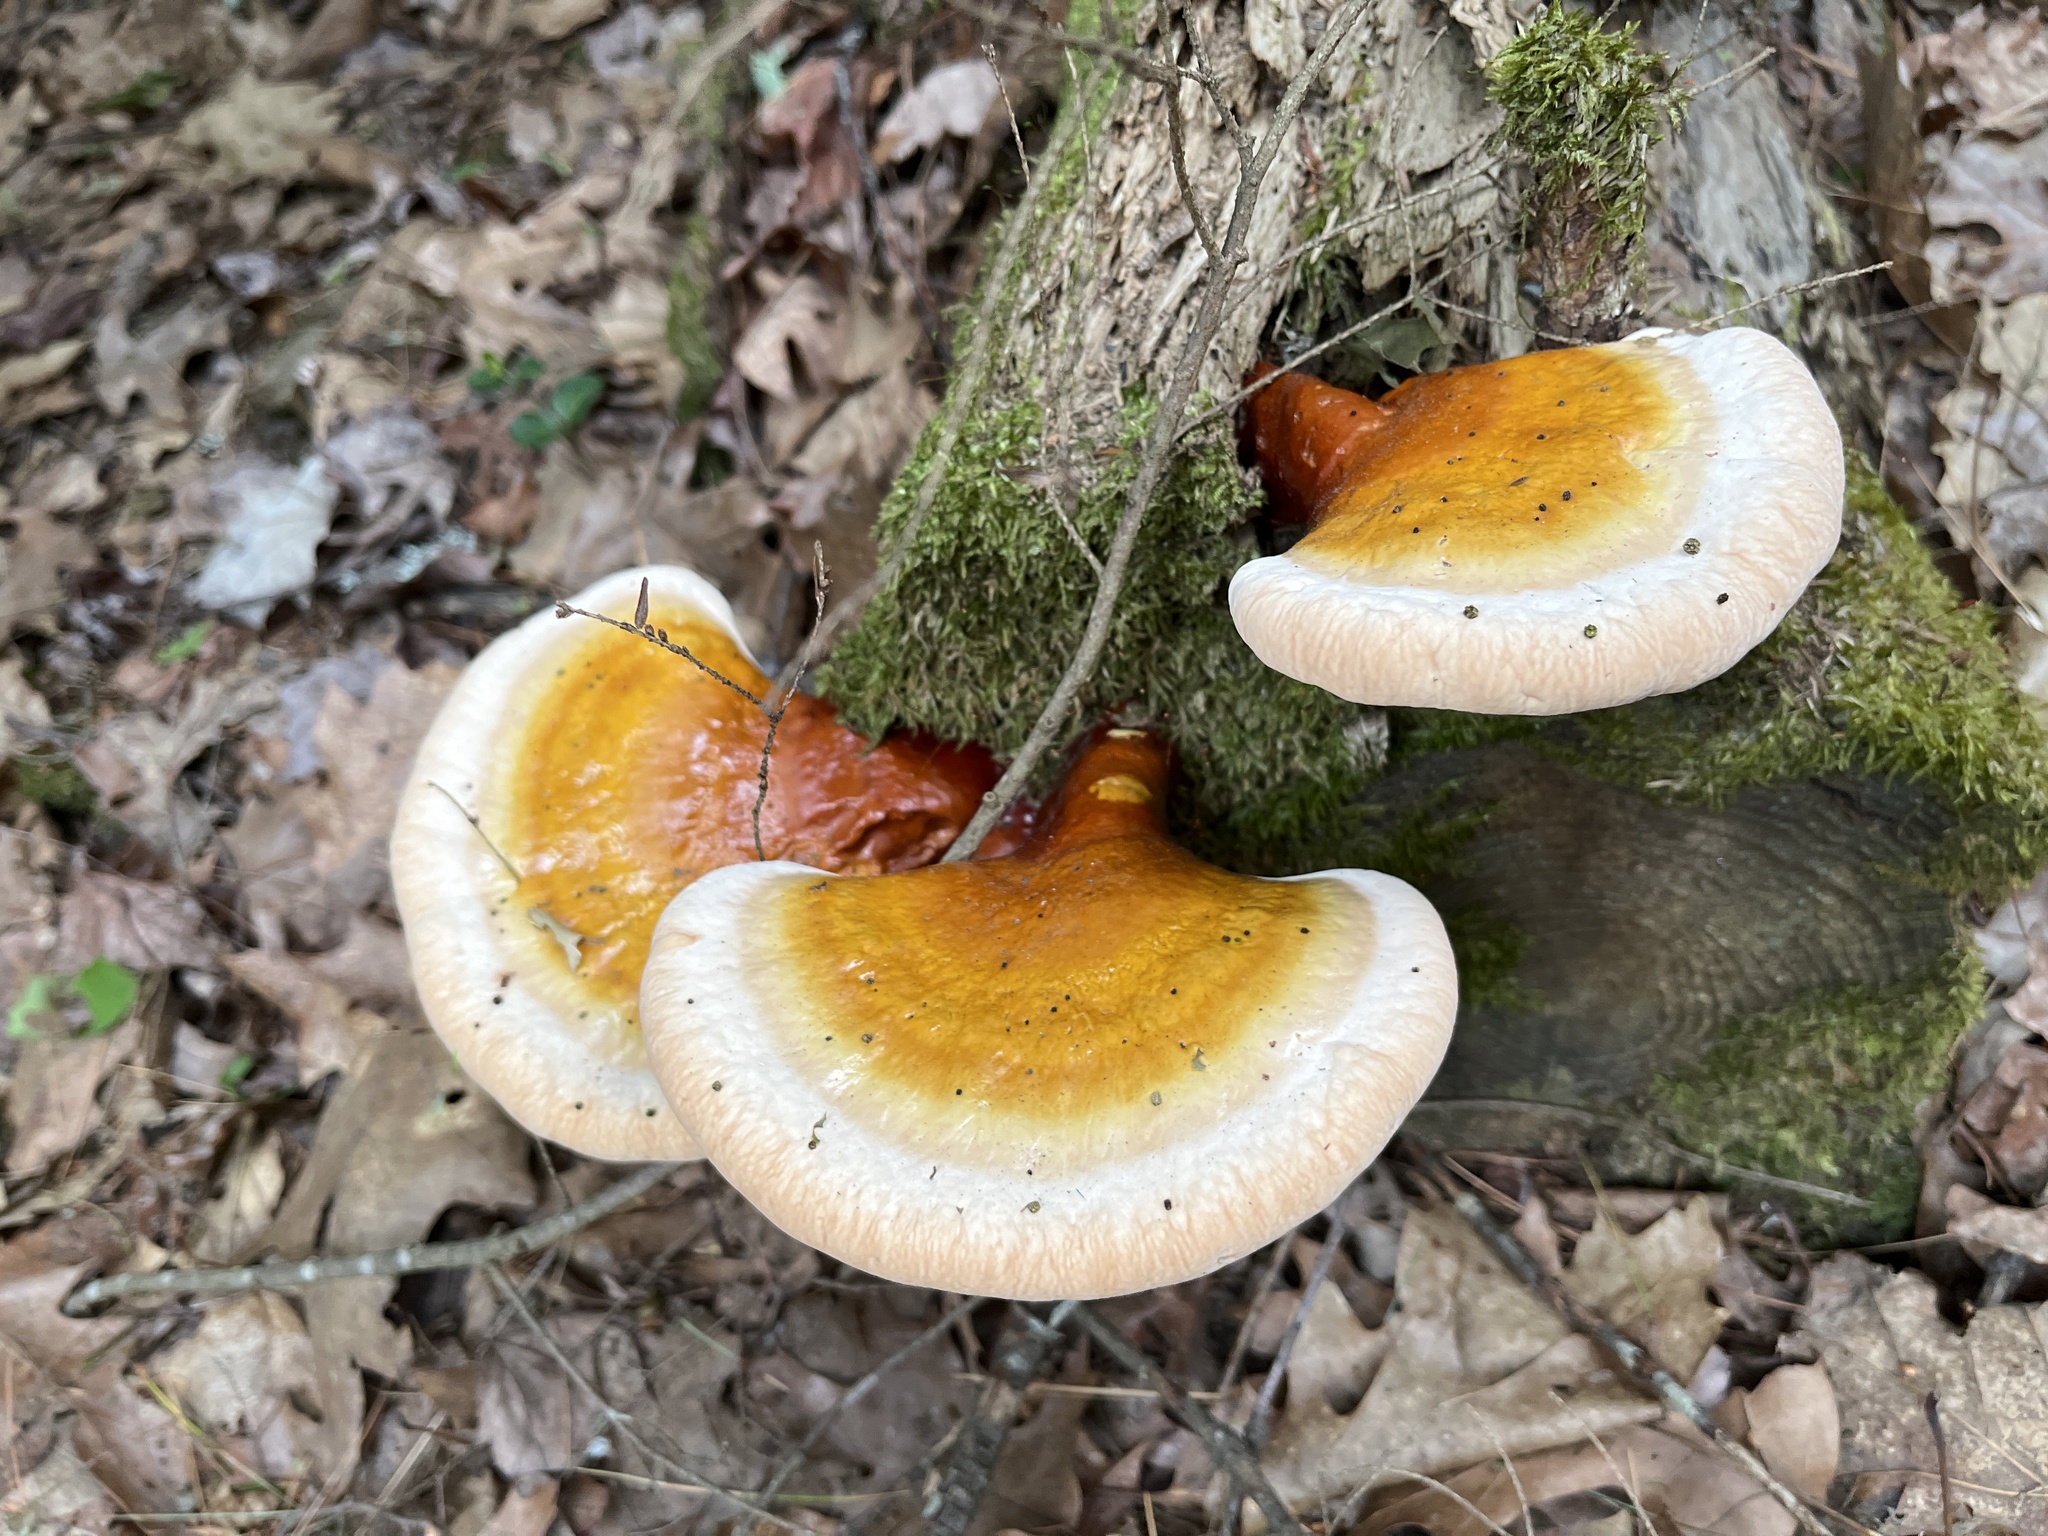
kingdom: Fungi
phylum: Basidiomycota
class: Agaricomycetes
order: Polyporales
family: Polyporaceae
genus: Ganoderma
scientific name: Ganoderma tsugae
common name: Hemlock varnish shelf
